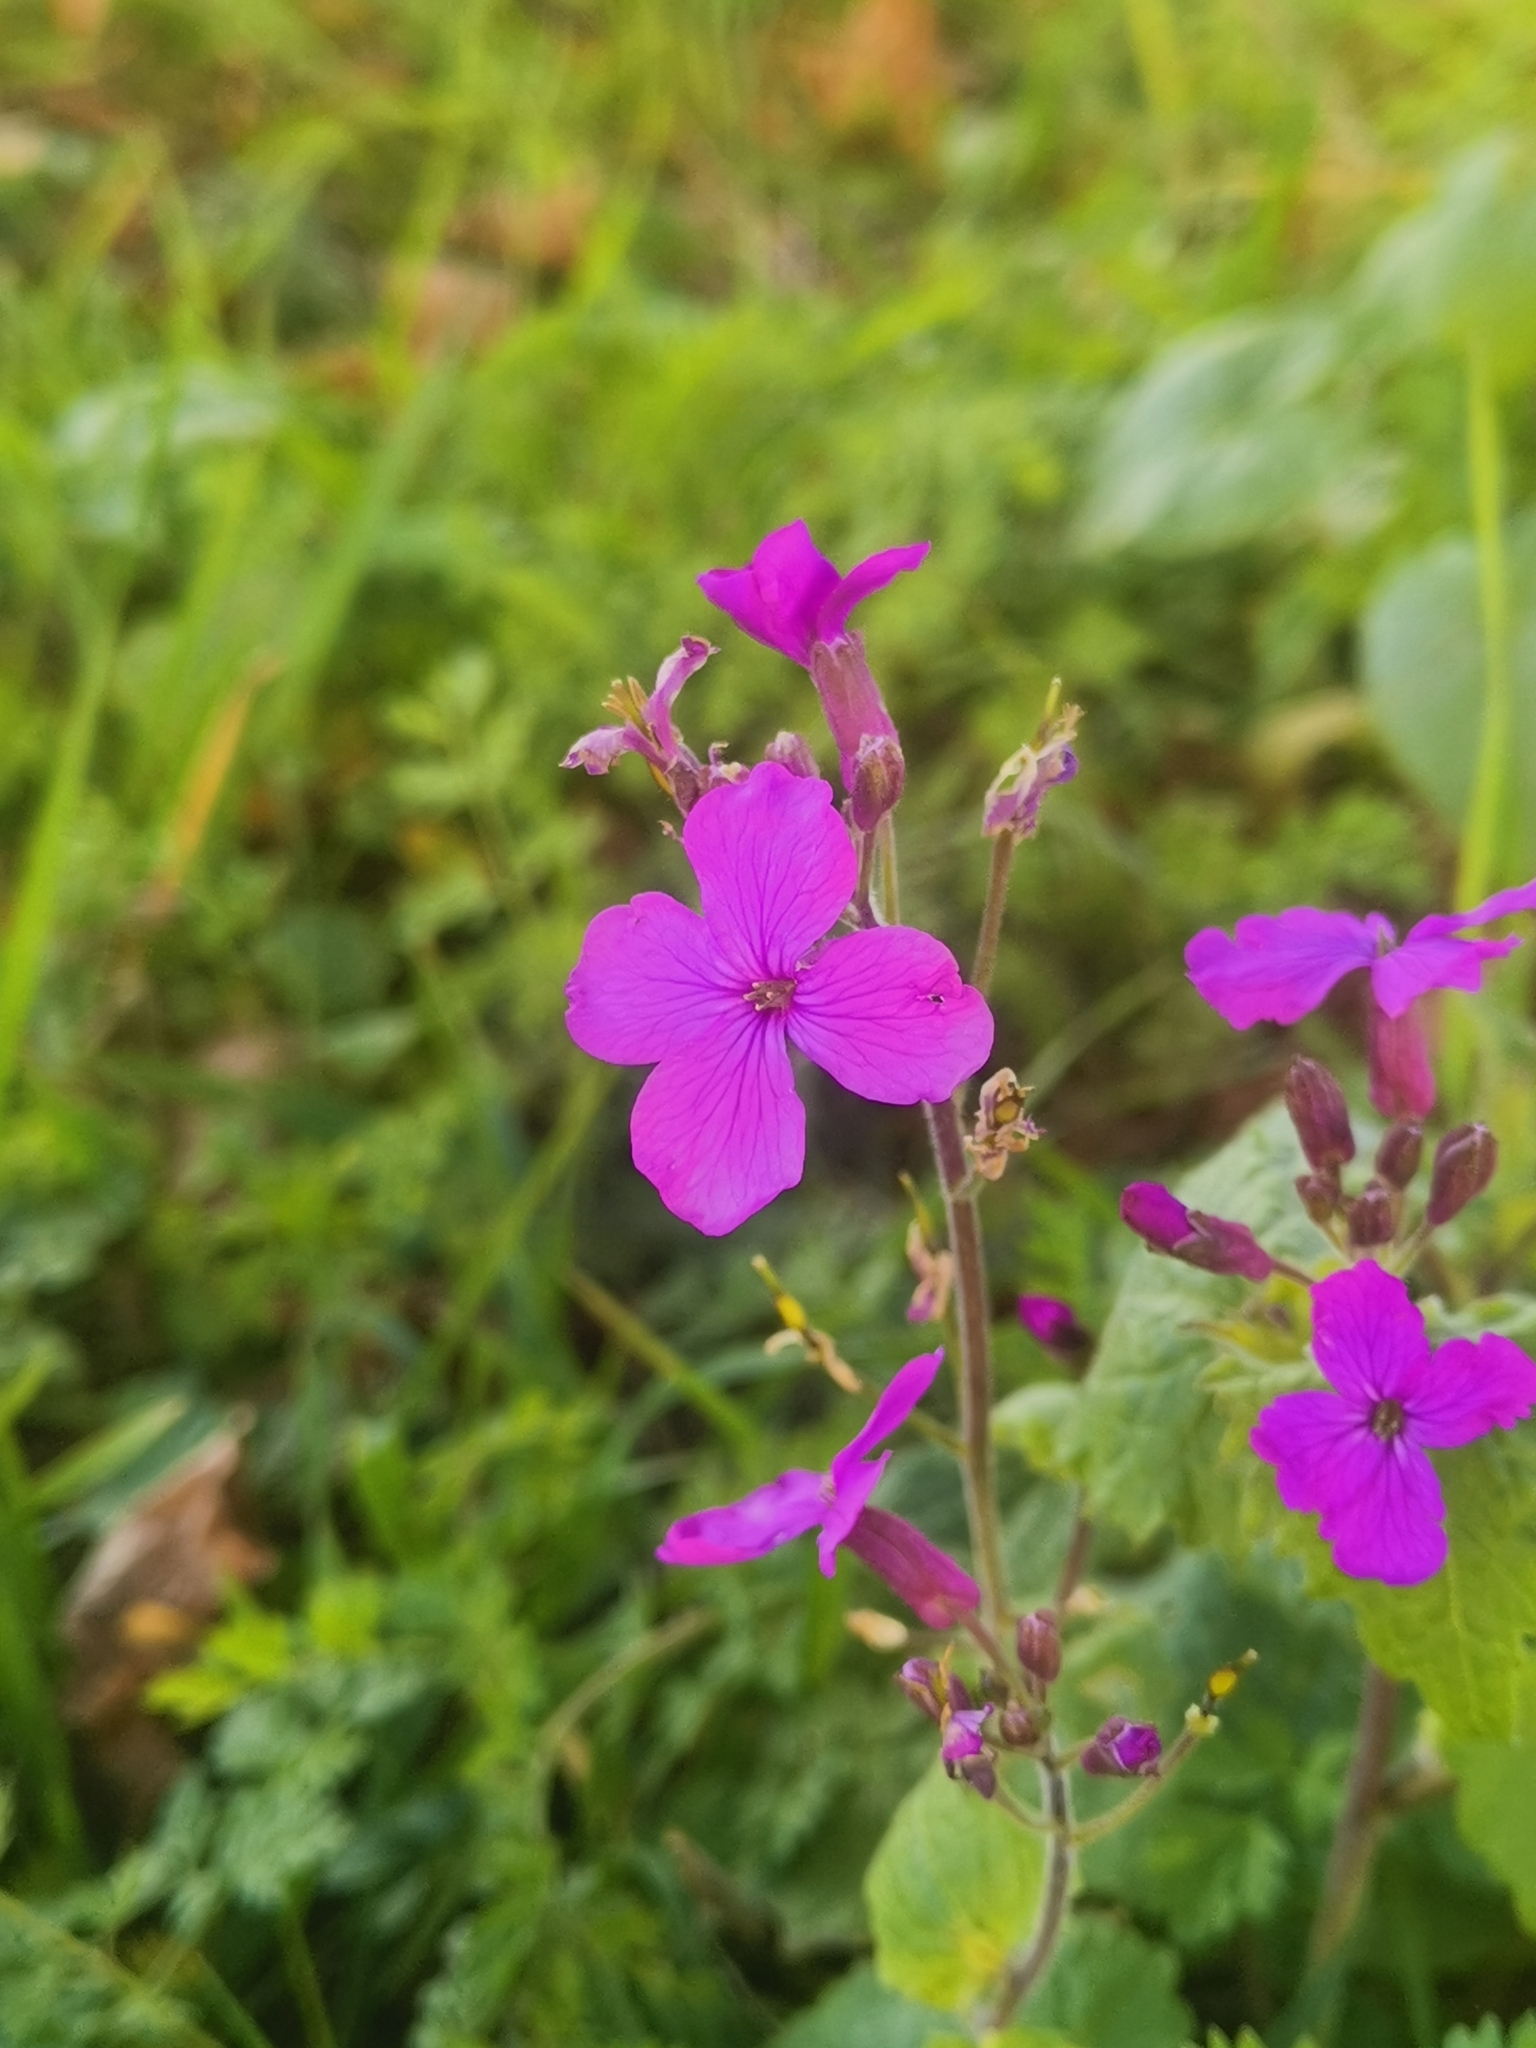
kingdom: Plantae
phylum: Tracheophyta
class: Magnoliopsida
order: Brassicales
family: Brassicaceae
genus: Lunaria
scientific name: Lunaria annua
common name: Honesty
